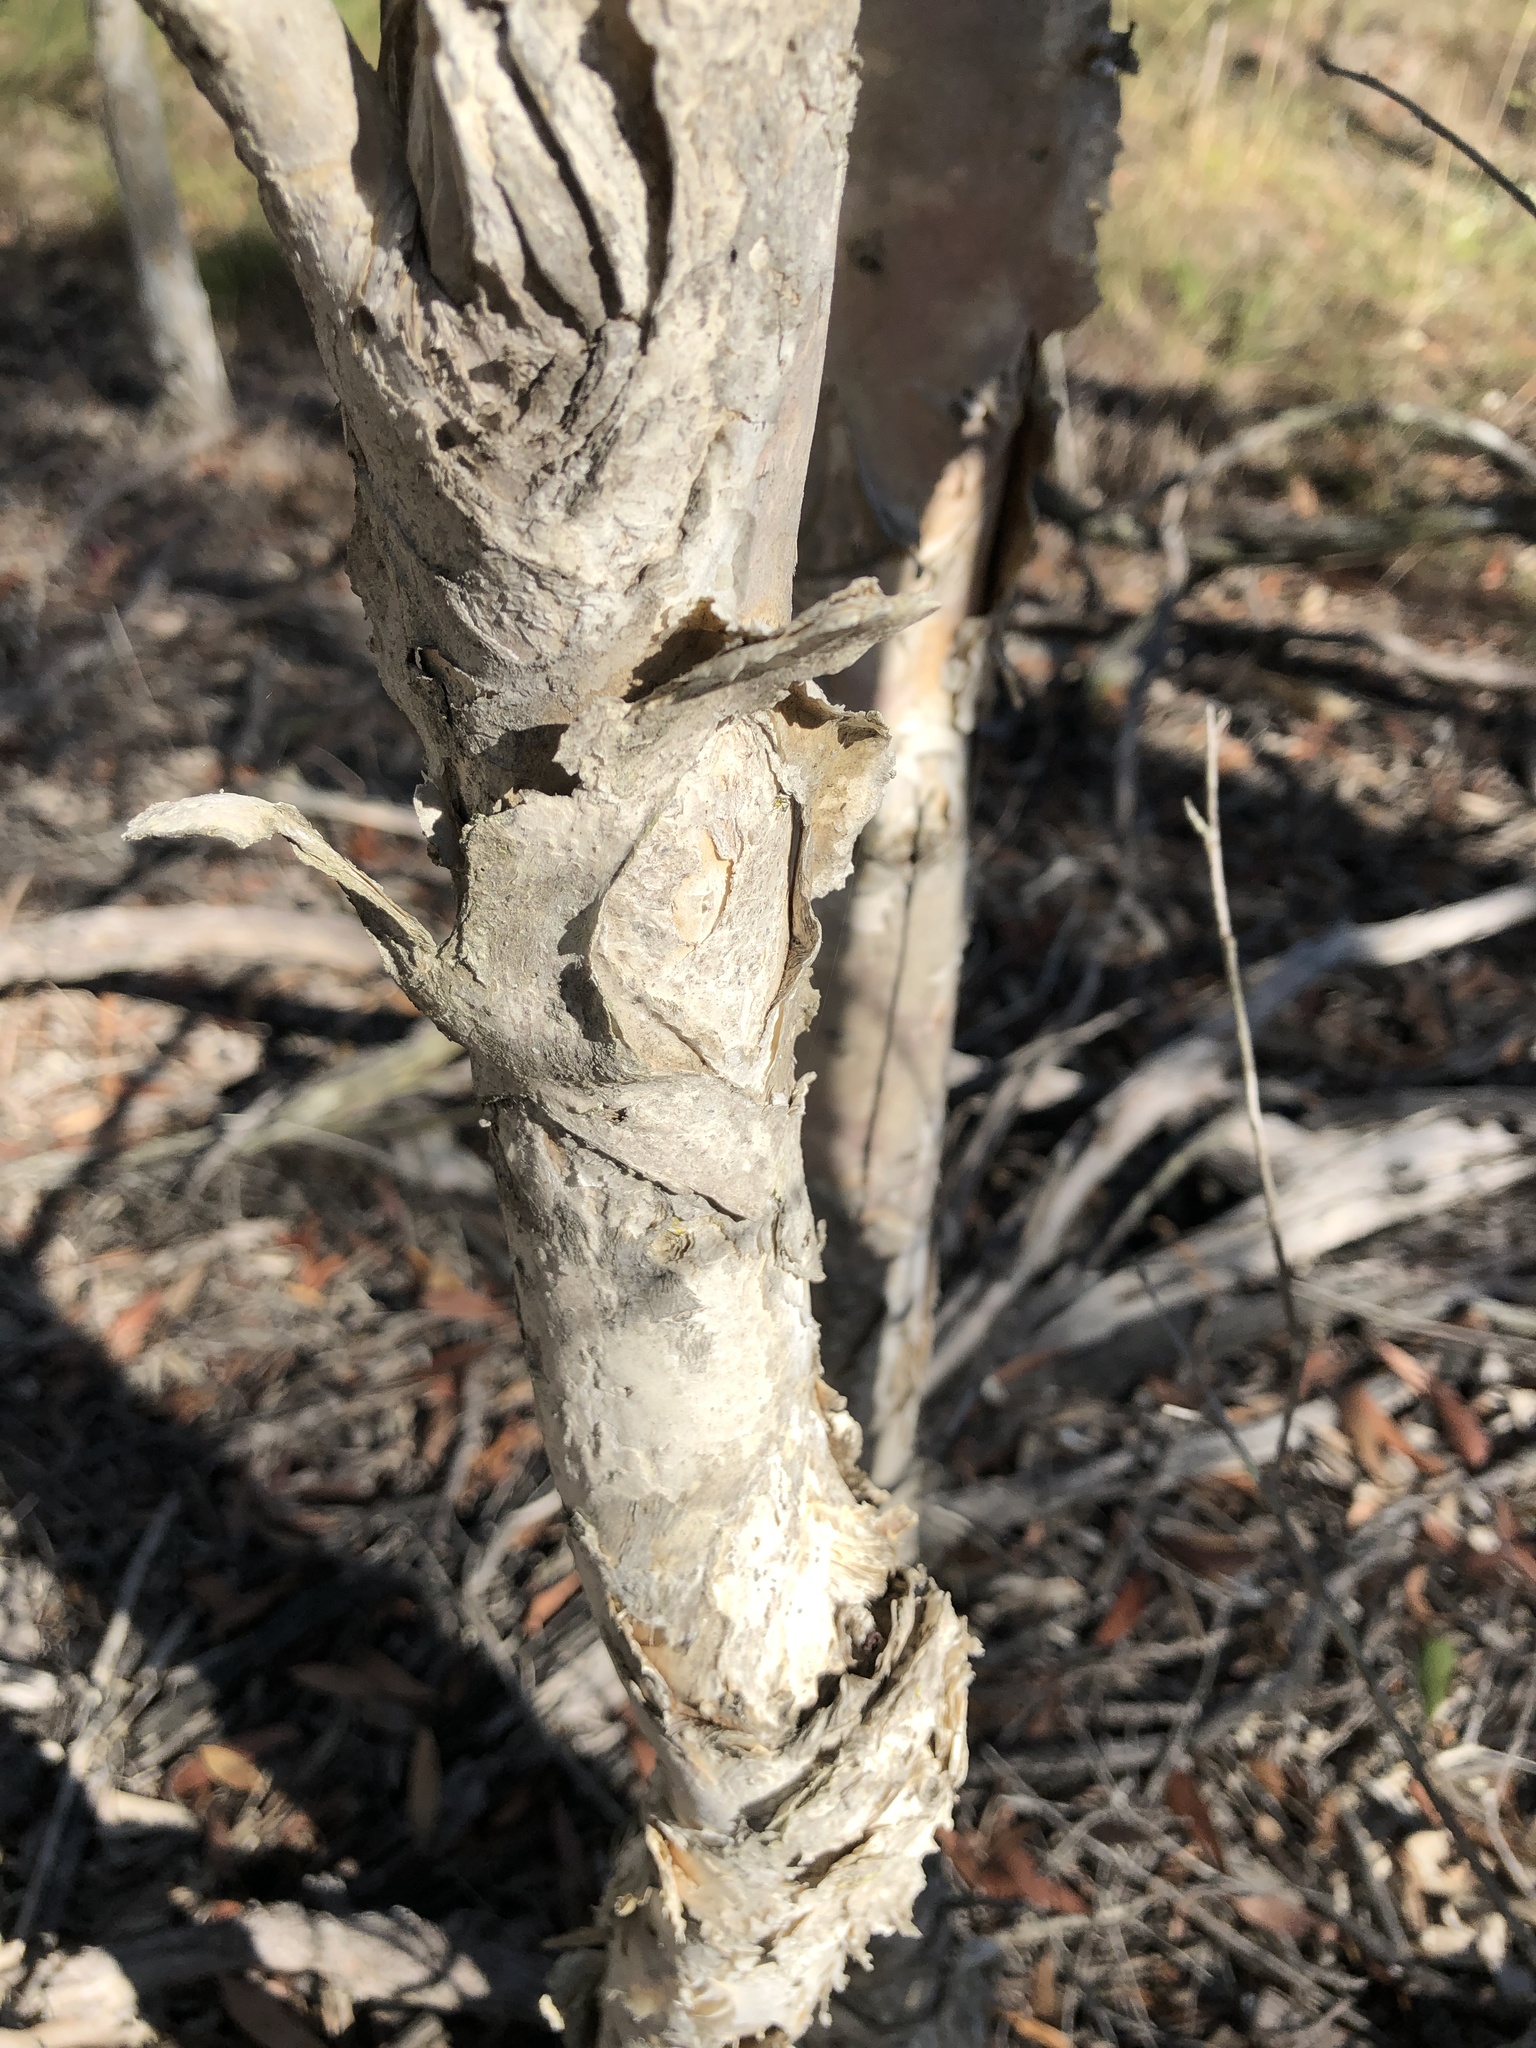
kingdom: Plantae
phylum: Tracheophyta
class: Magnoliopsida
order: Myrtales
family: Myrtaceae
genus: Melaleuca
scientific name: Melaleuca quinquenervia
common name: Punktree
